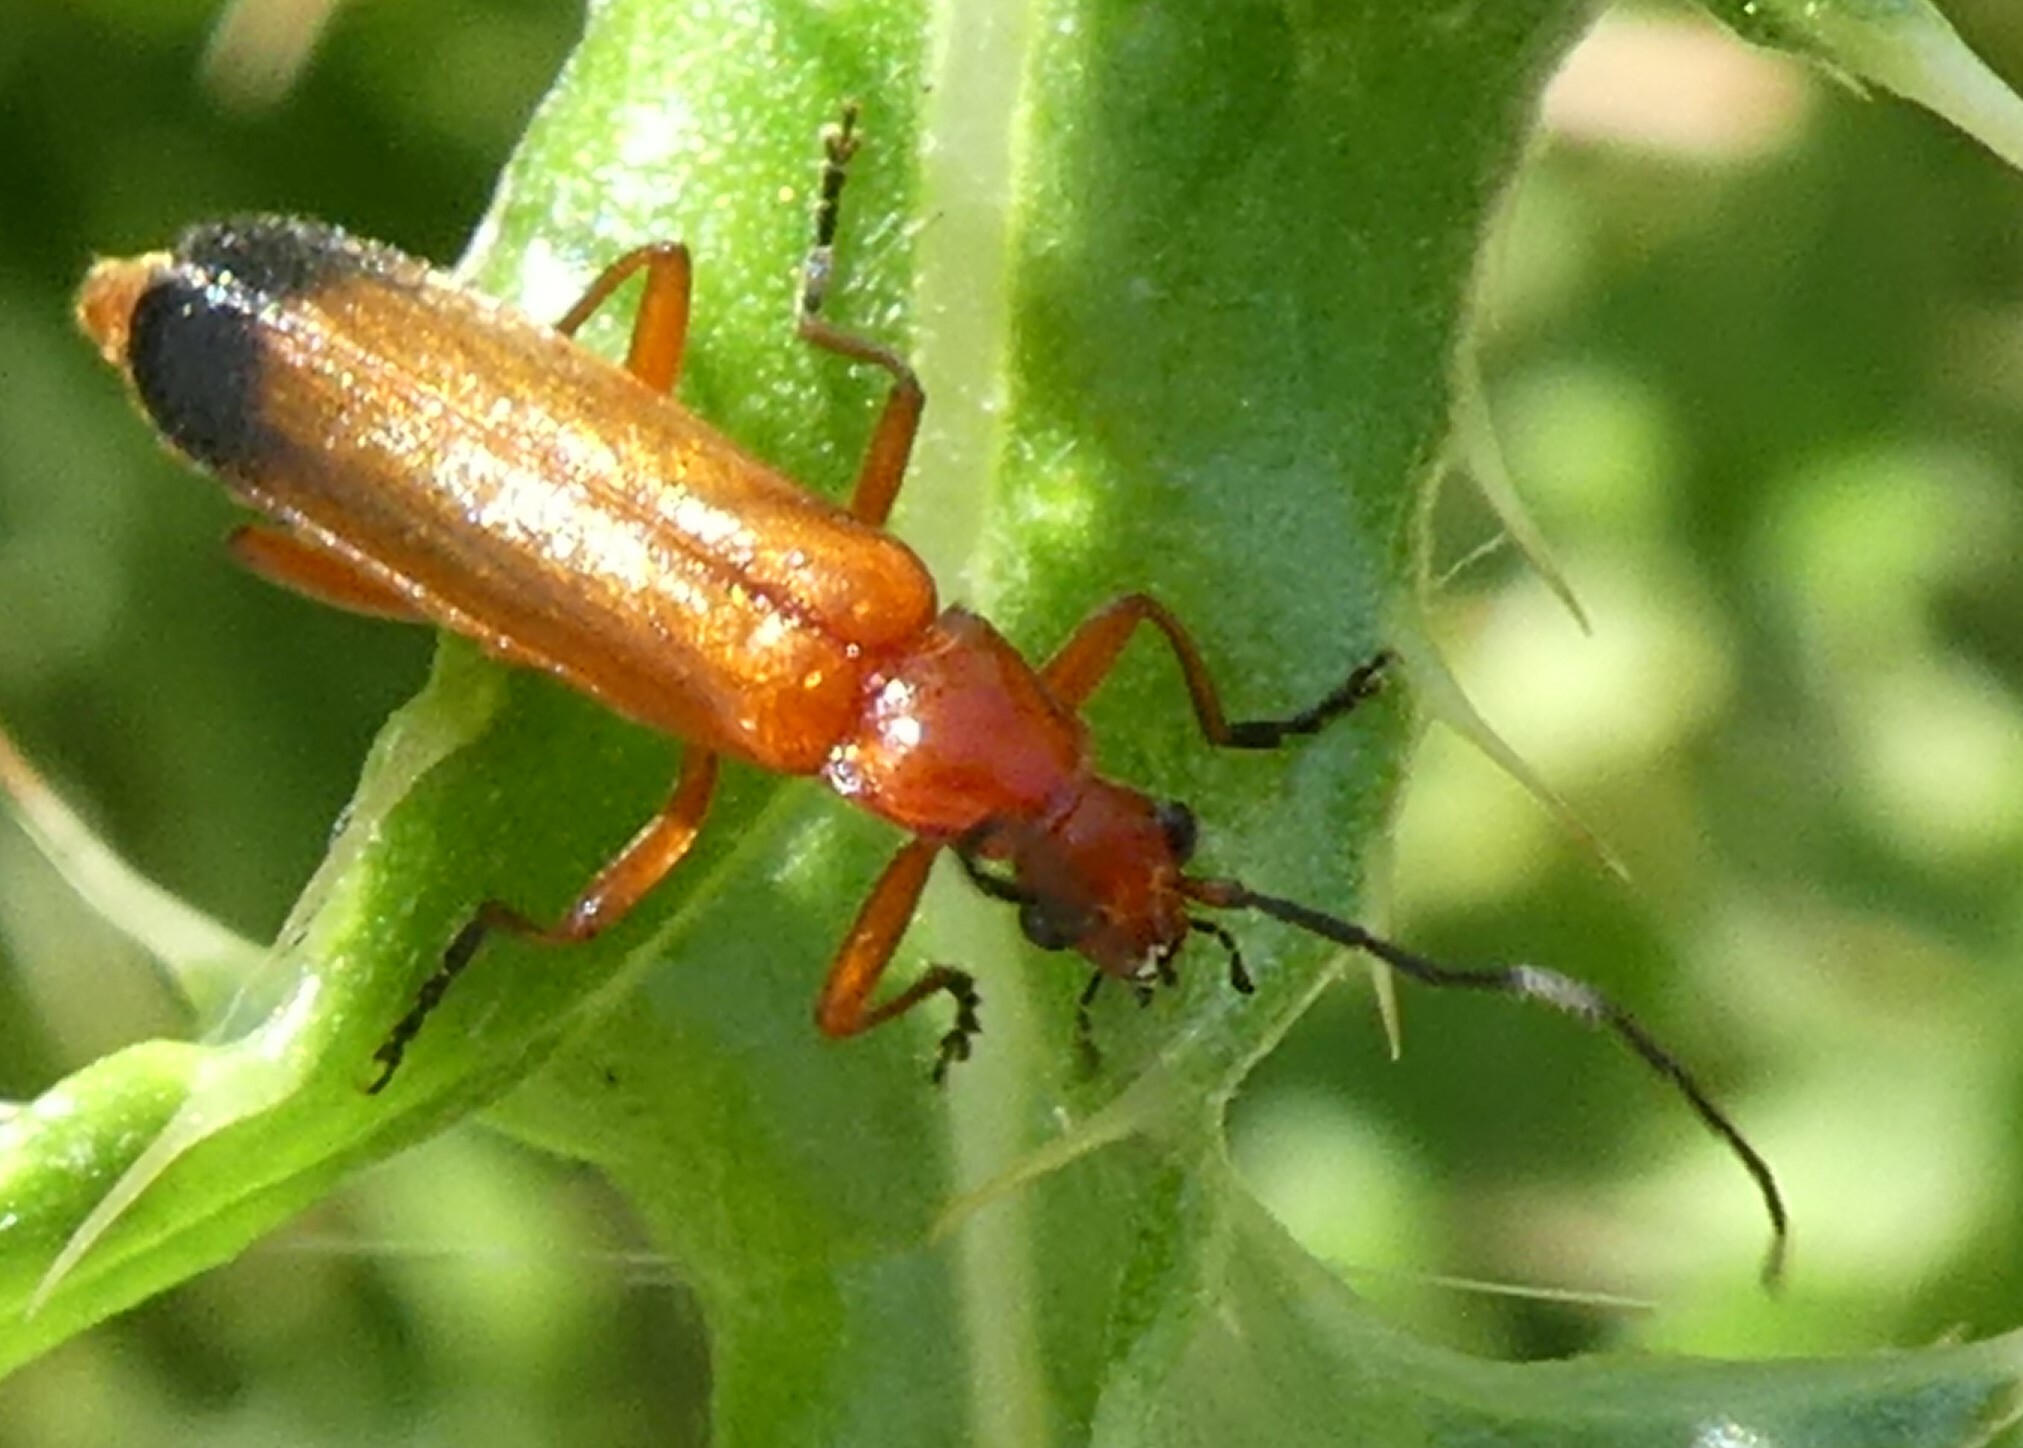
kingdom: Animalia
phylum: Arthropoda
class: Insecta
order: Coleoptera
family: Cantharidae
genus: Rhagonycha
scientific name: Rhagonycha fulva
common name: Common red soldier beetle
